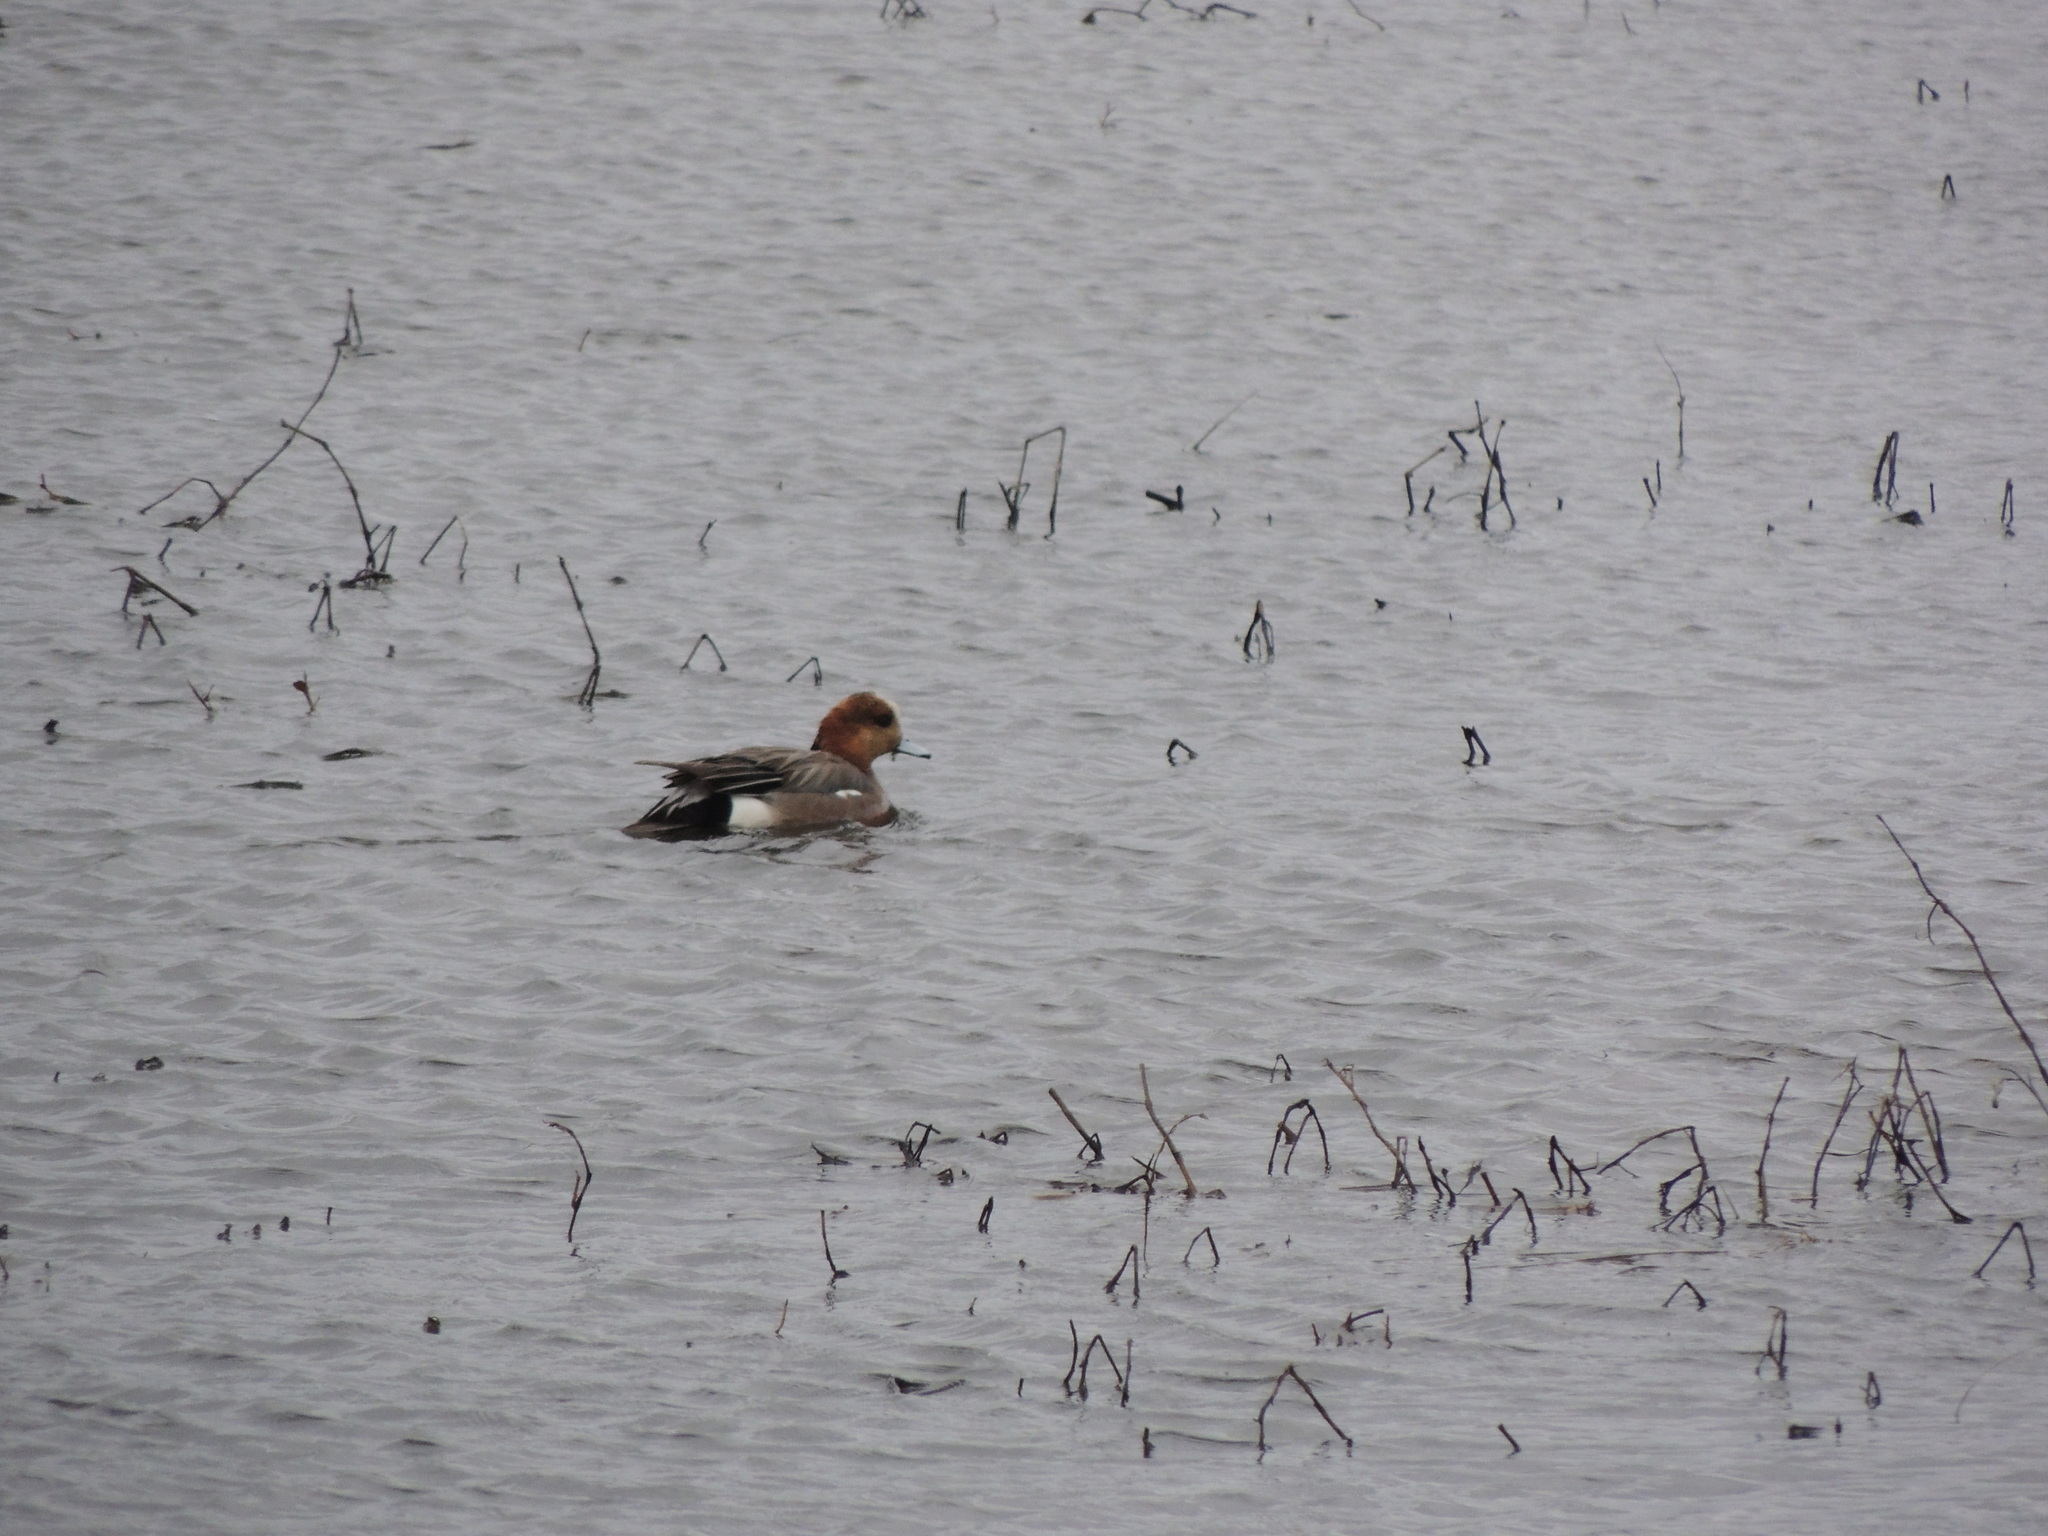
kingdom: Animalia
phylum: Chordata
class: Aves
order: Anseriformes
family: Anatidae
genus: Mareca
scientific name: Mareca
